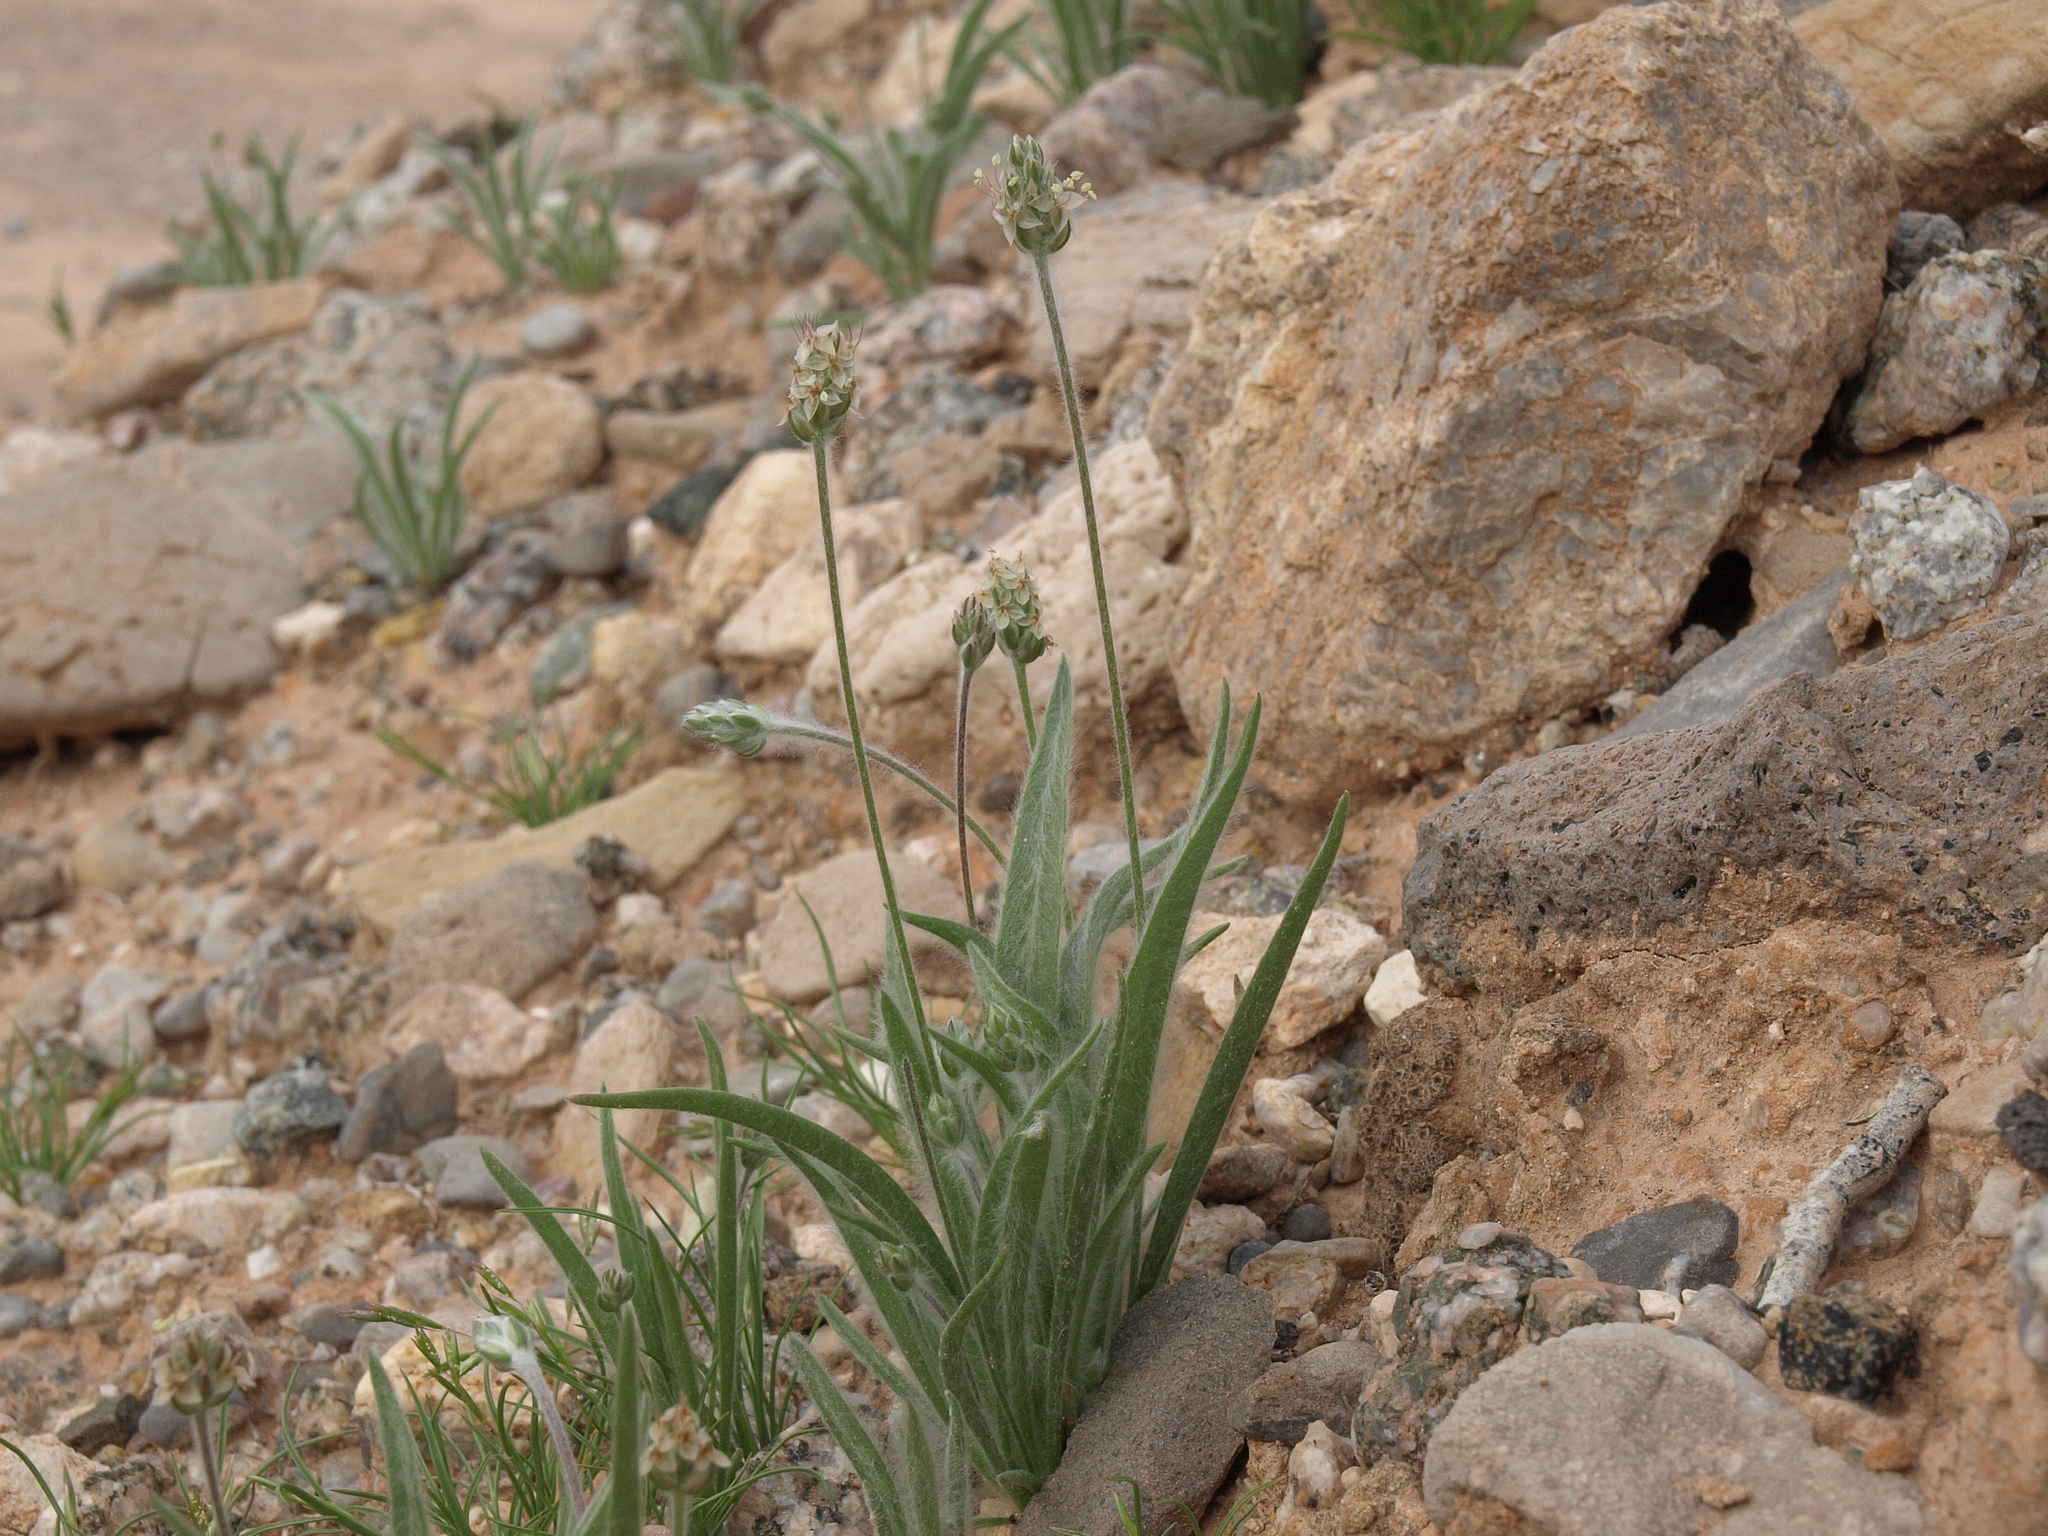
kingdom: Plantae
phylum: Tracheophyta
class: Magnoliopsida
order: Lamiales
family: Plantaginaceae
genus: Plantago
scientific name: Plantago ovata
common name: Blond plantain
